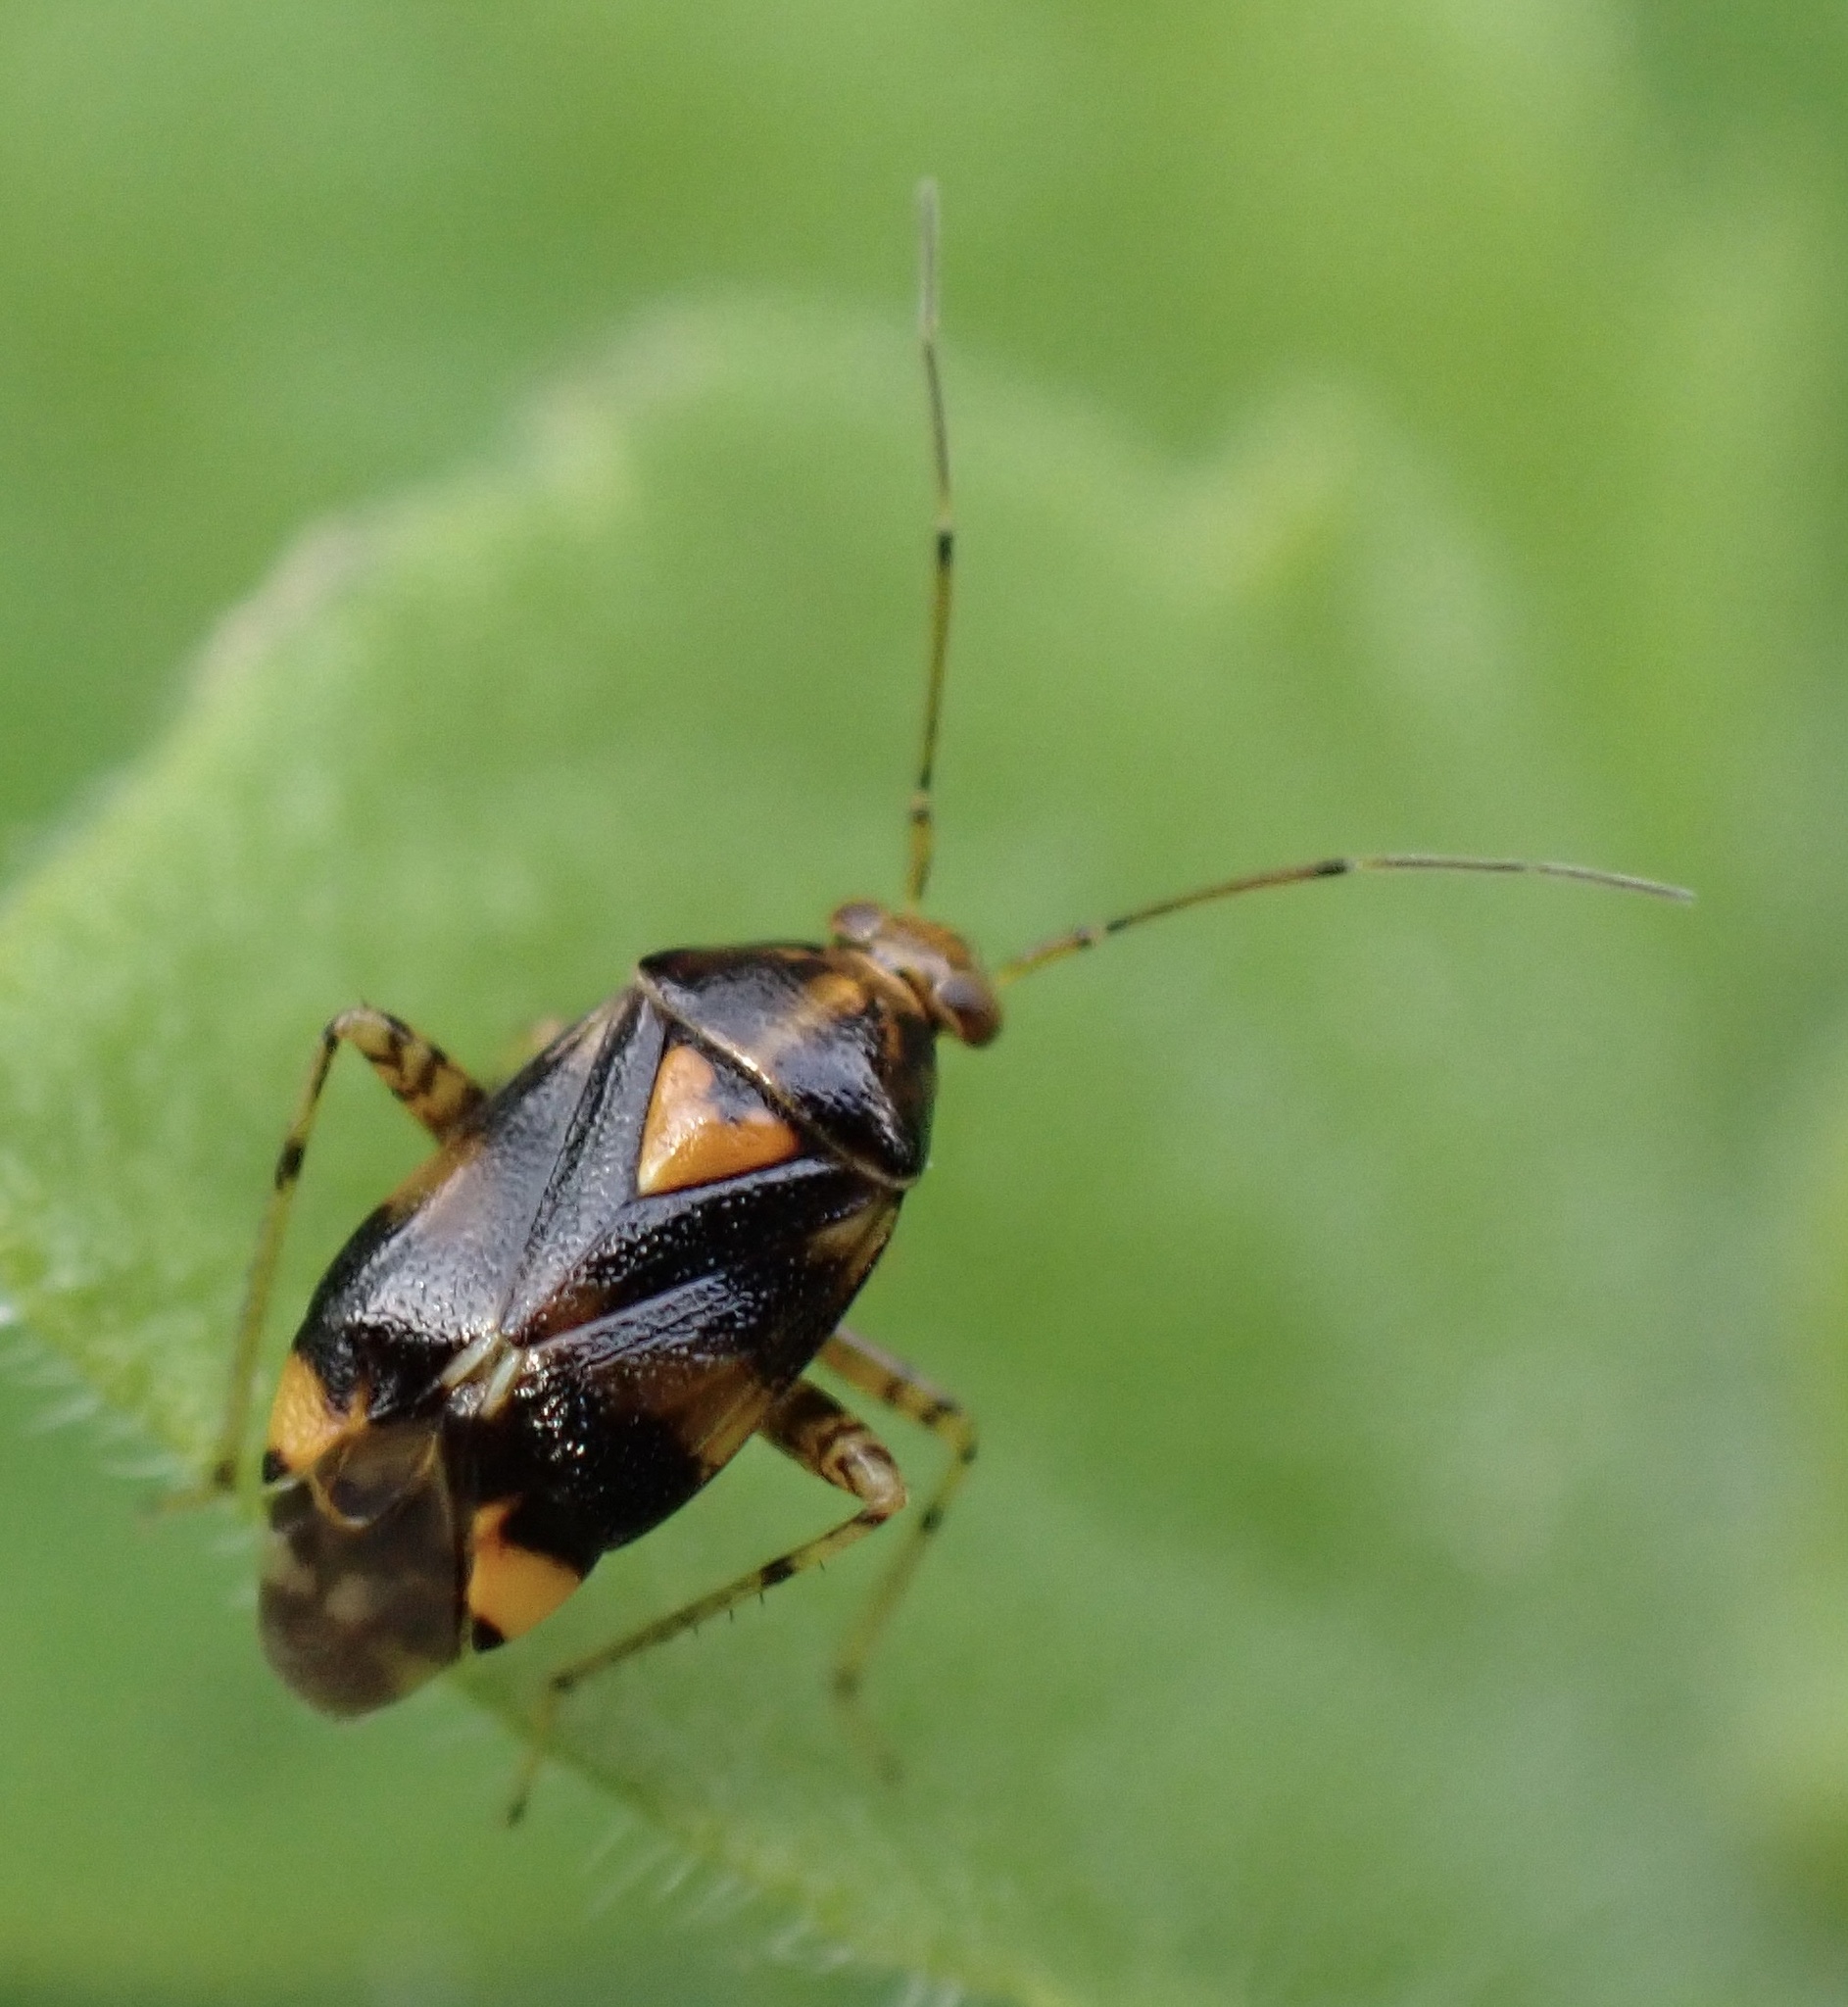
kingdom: Animalia
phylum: Arthropoda
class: Insecta
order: Hemiptera
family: Miridae
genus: Liocoris
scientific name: Liocoris tripustulatus
